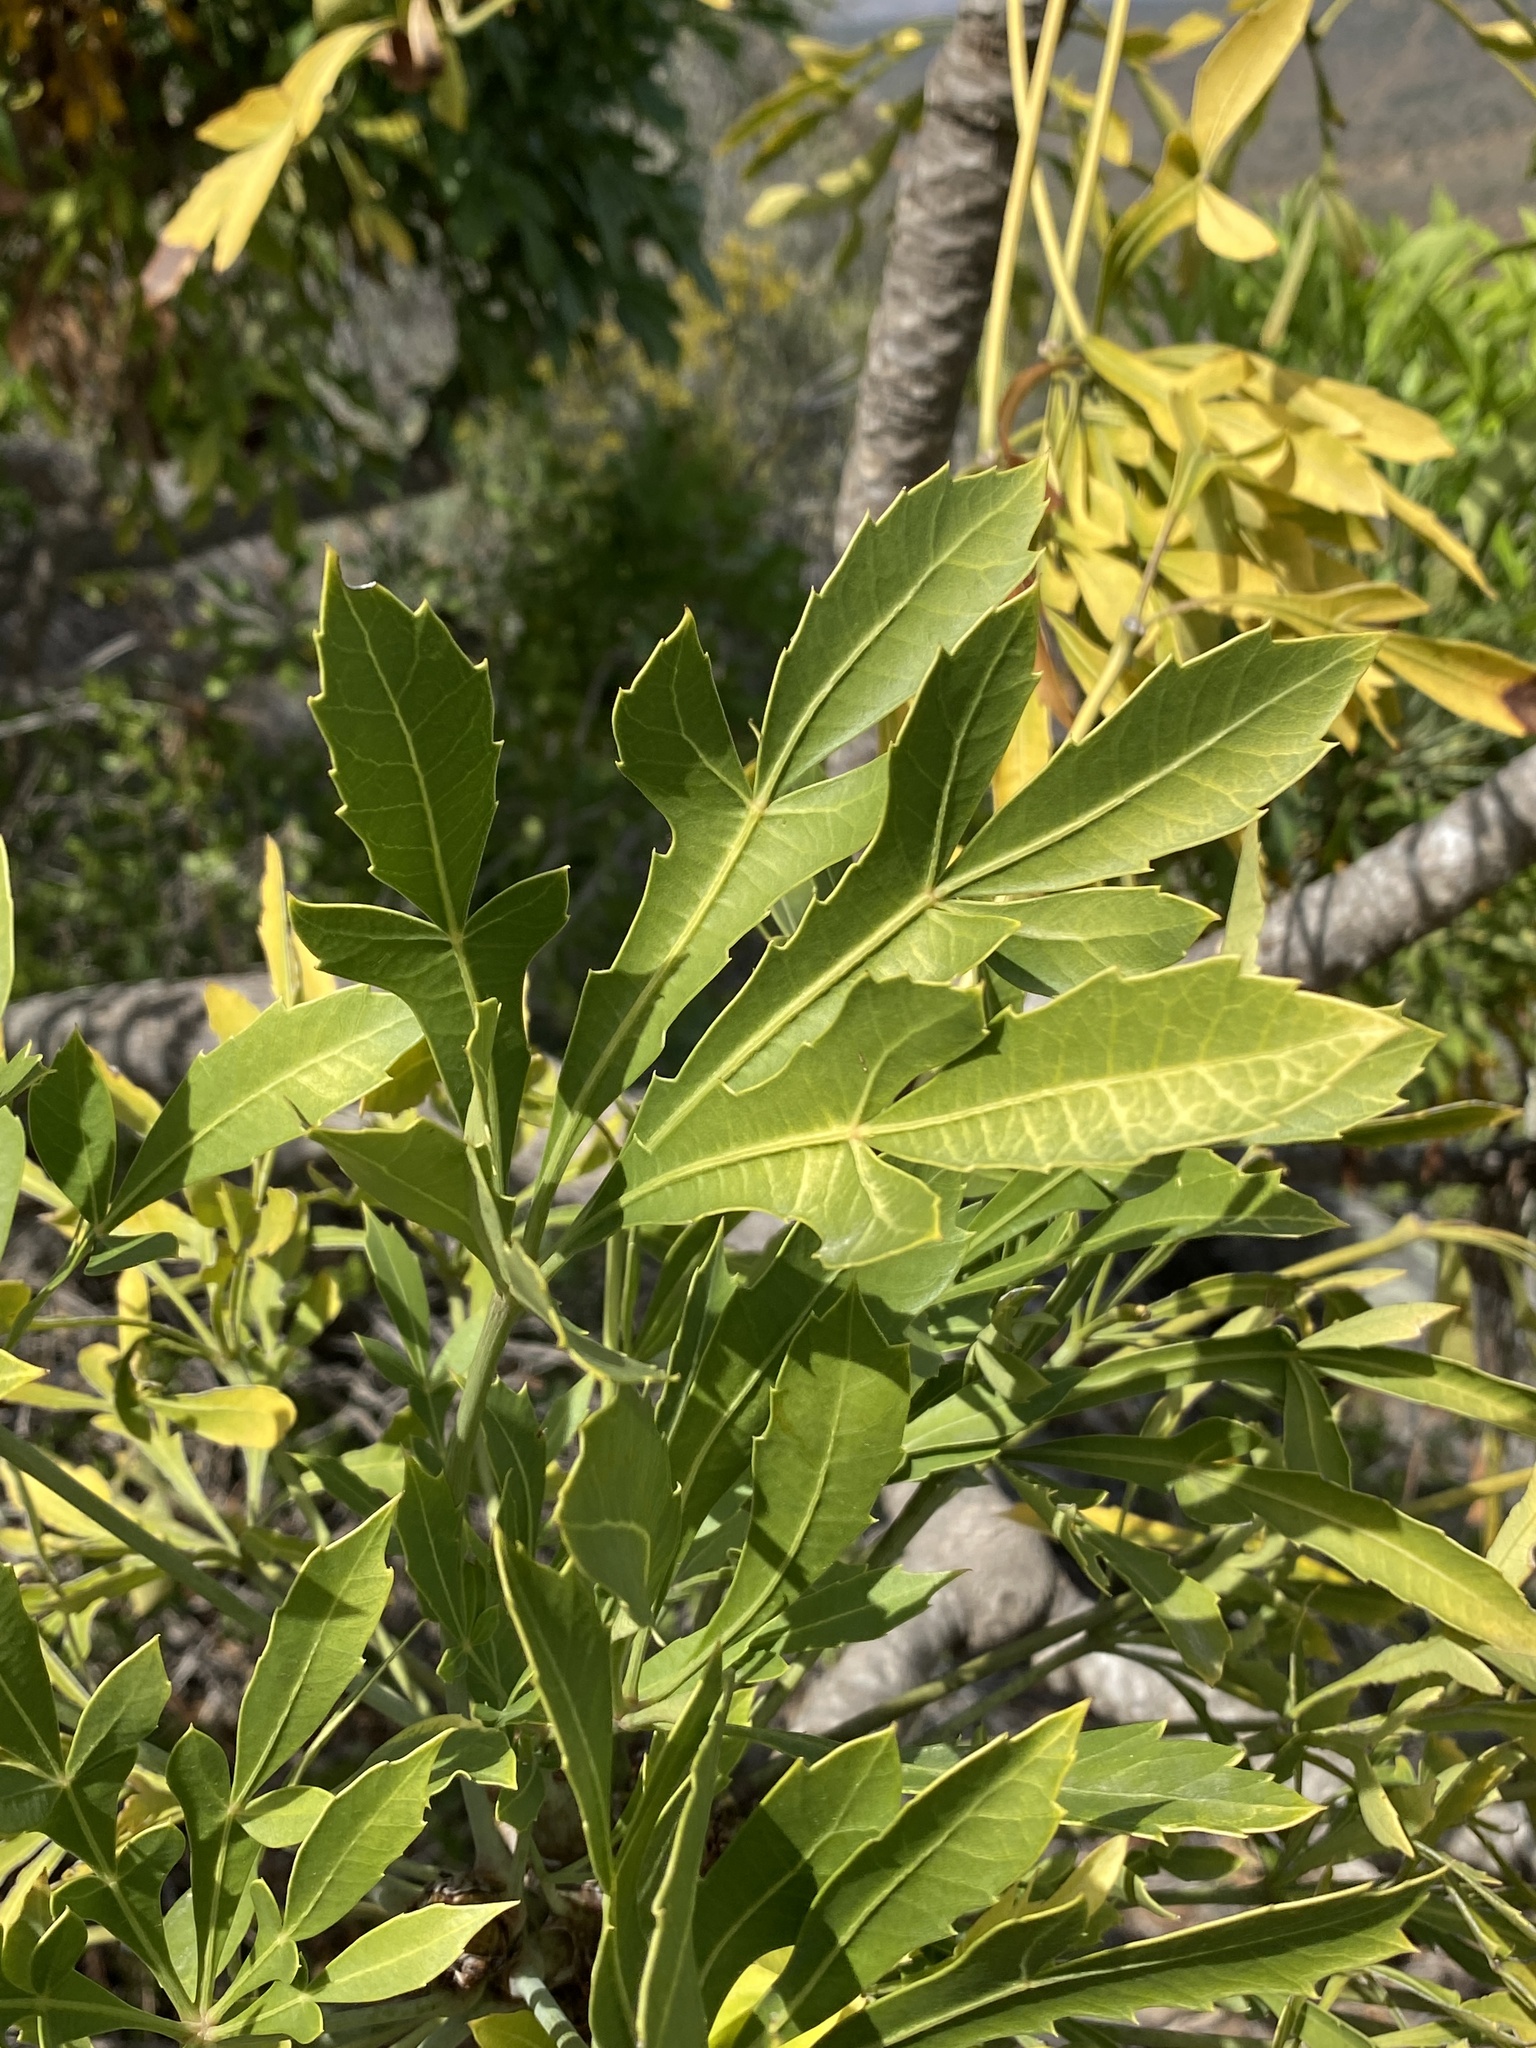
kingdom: Plantae
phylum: Tracheophyta
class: Magnoliopsida
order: Apiales
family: Araliaceae
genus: Cussonia
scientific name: Cussonia spicata
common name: Common cabbagetree
